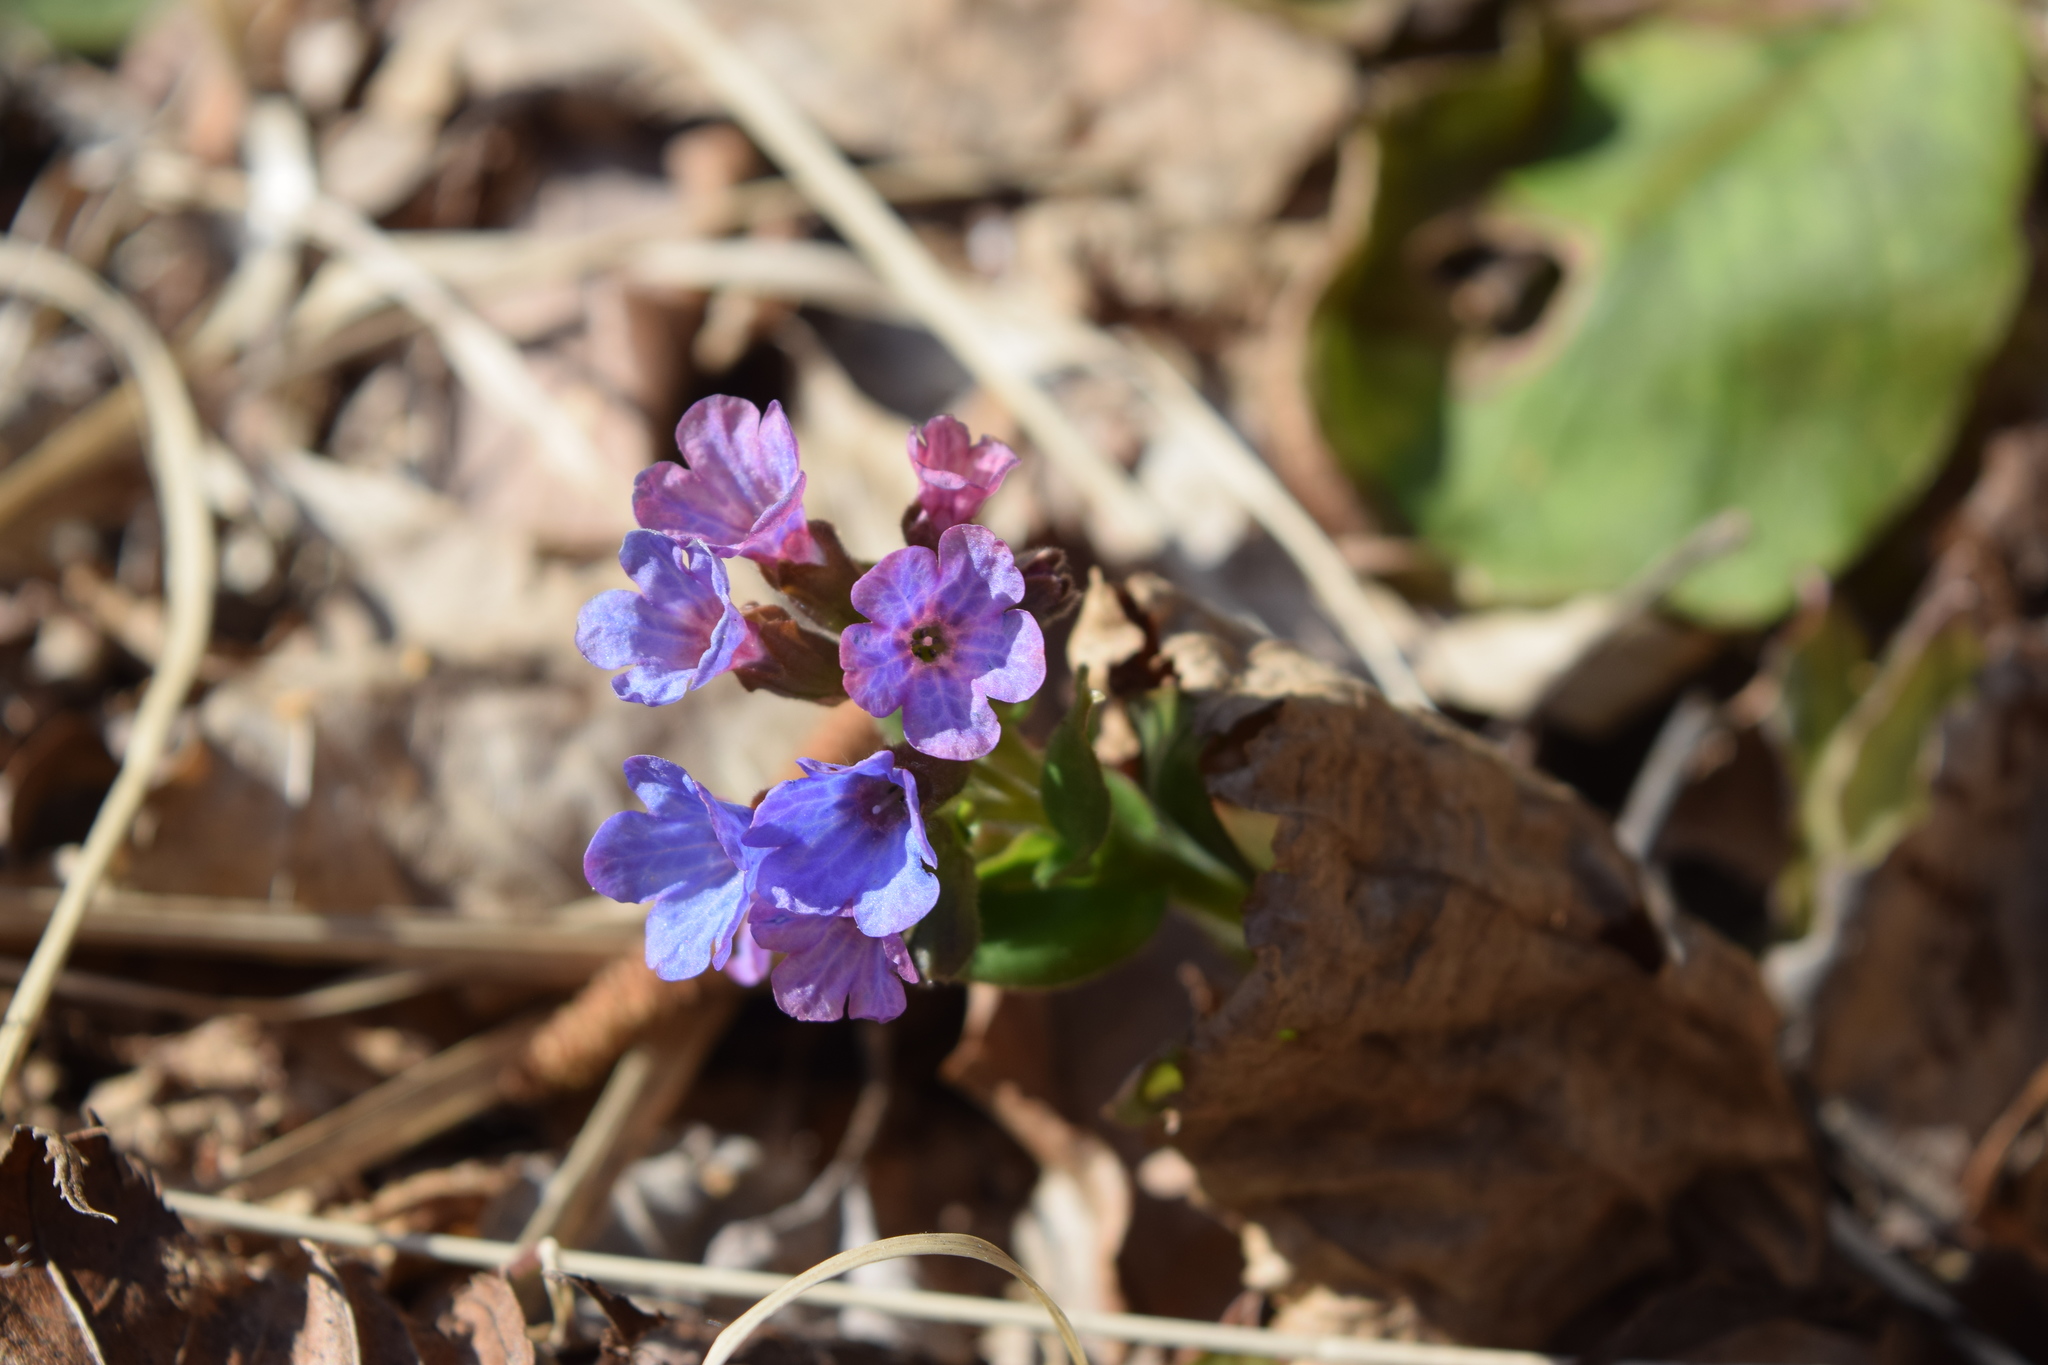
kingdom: Plantae
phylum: Tracheophyta
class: Magnoliopsida
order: Boraginales
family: Boraginaceae
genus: Pulmonaria
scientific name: Pulmonaria obscura
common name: Suffolk lungwort
